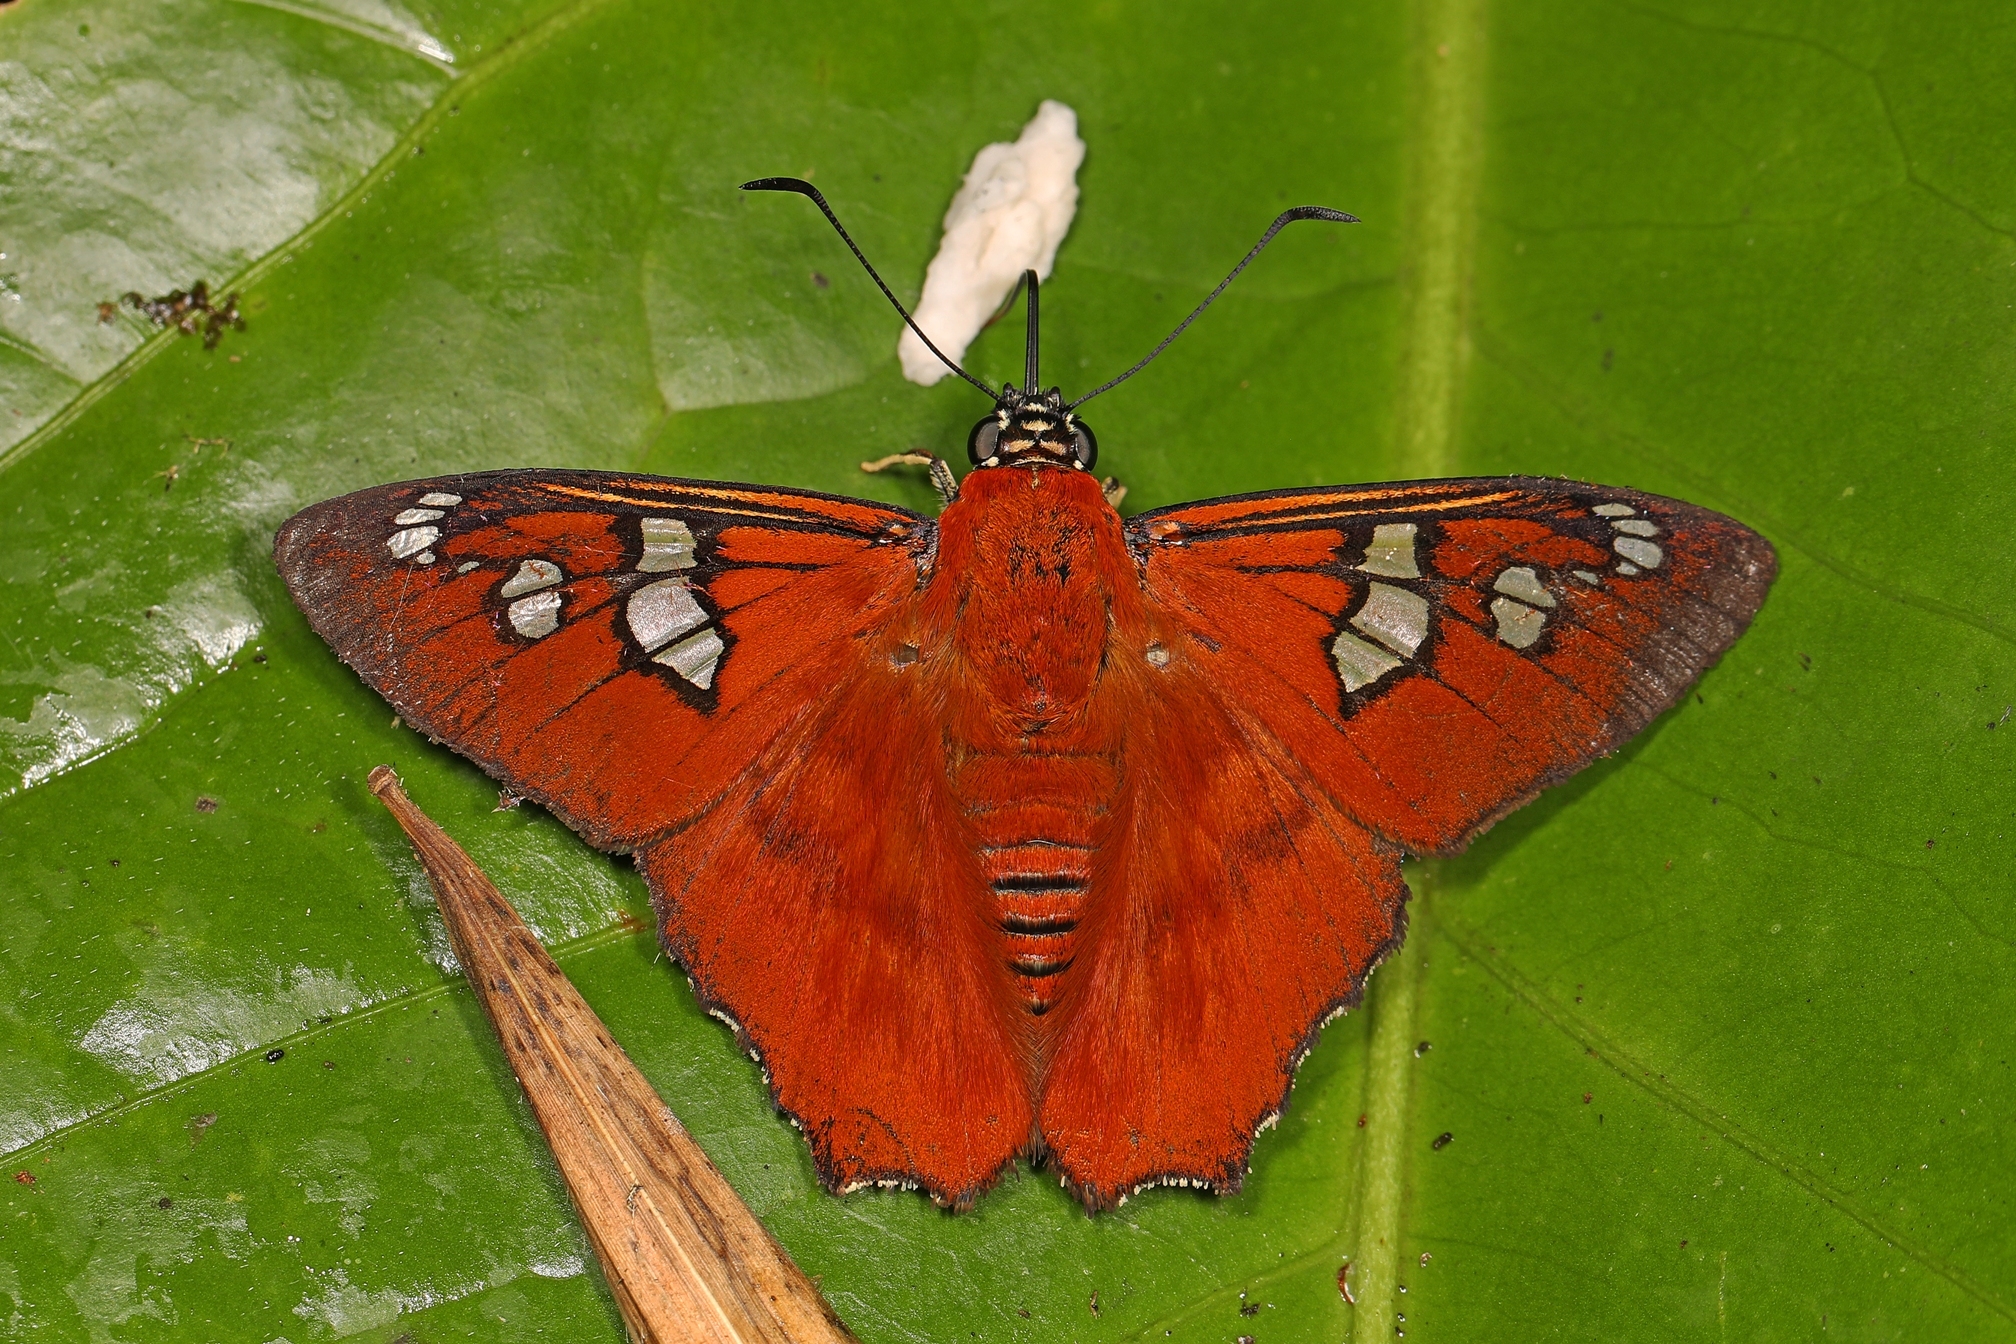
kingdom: Animalia
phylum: Arthropoda
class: Insecta
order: Lepidoptera
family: Hesperiidae
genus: Myscelus
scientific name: Myscelus pegasus
